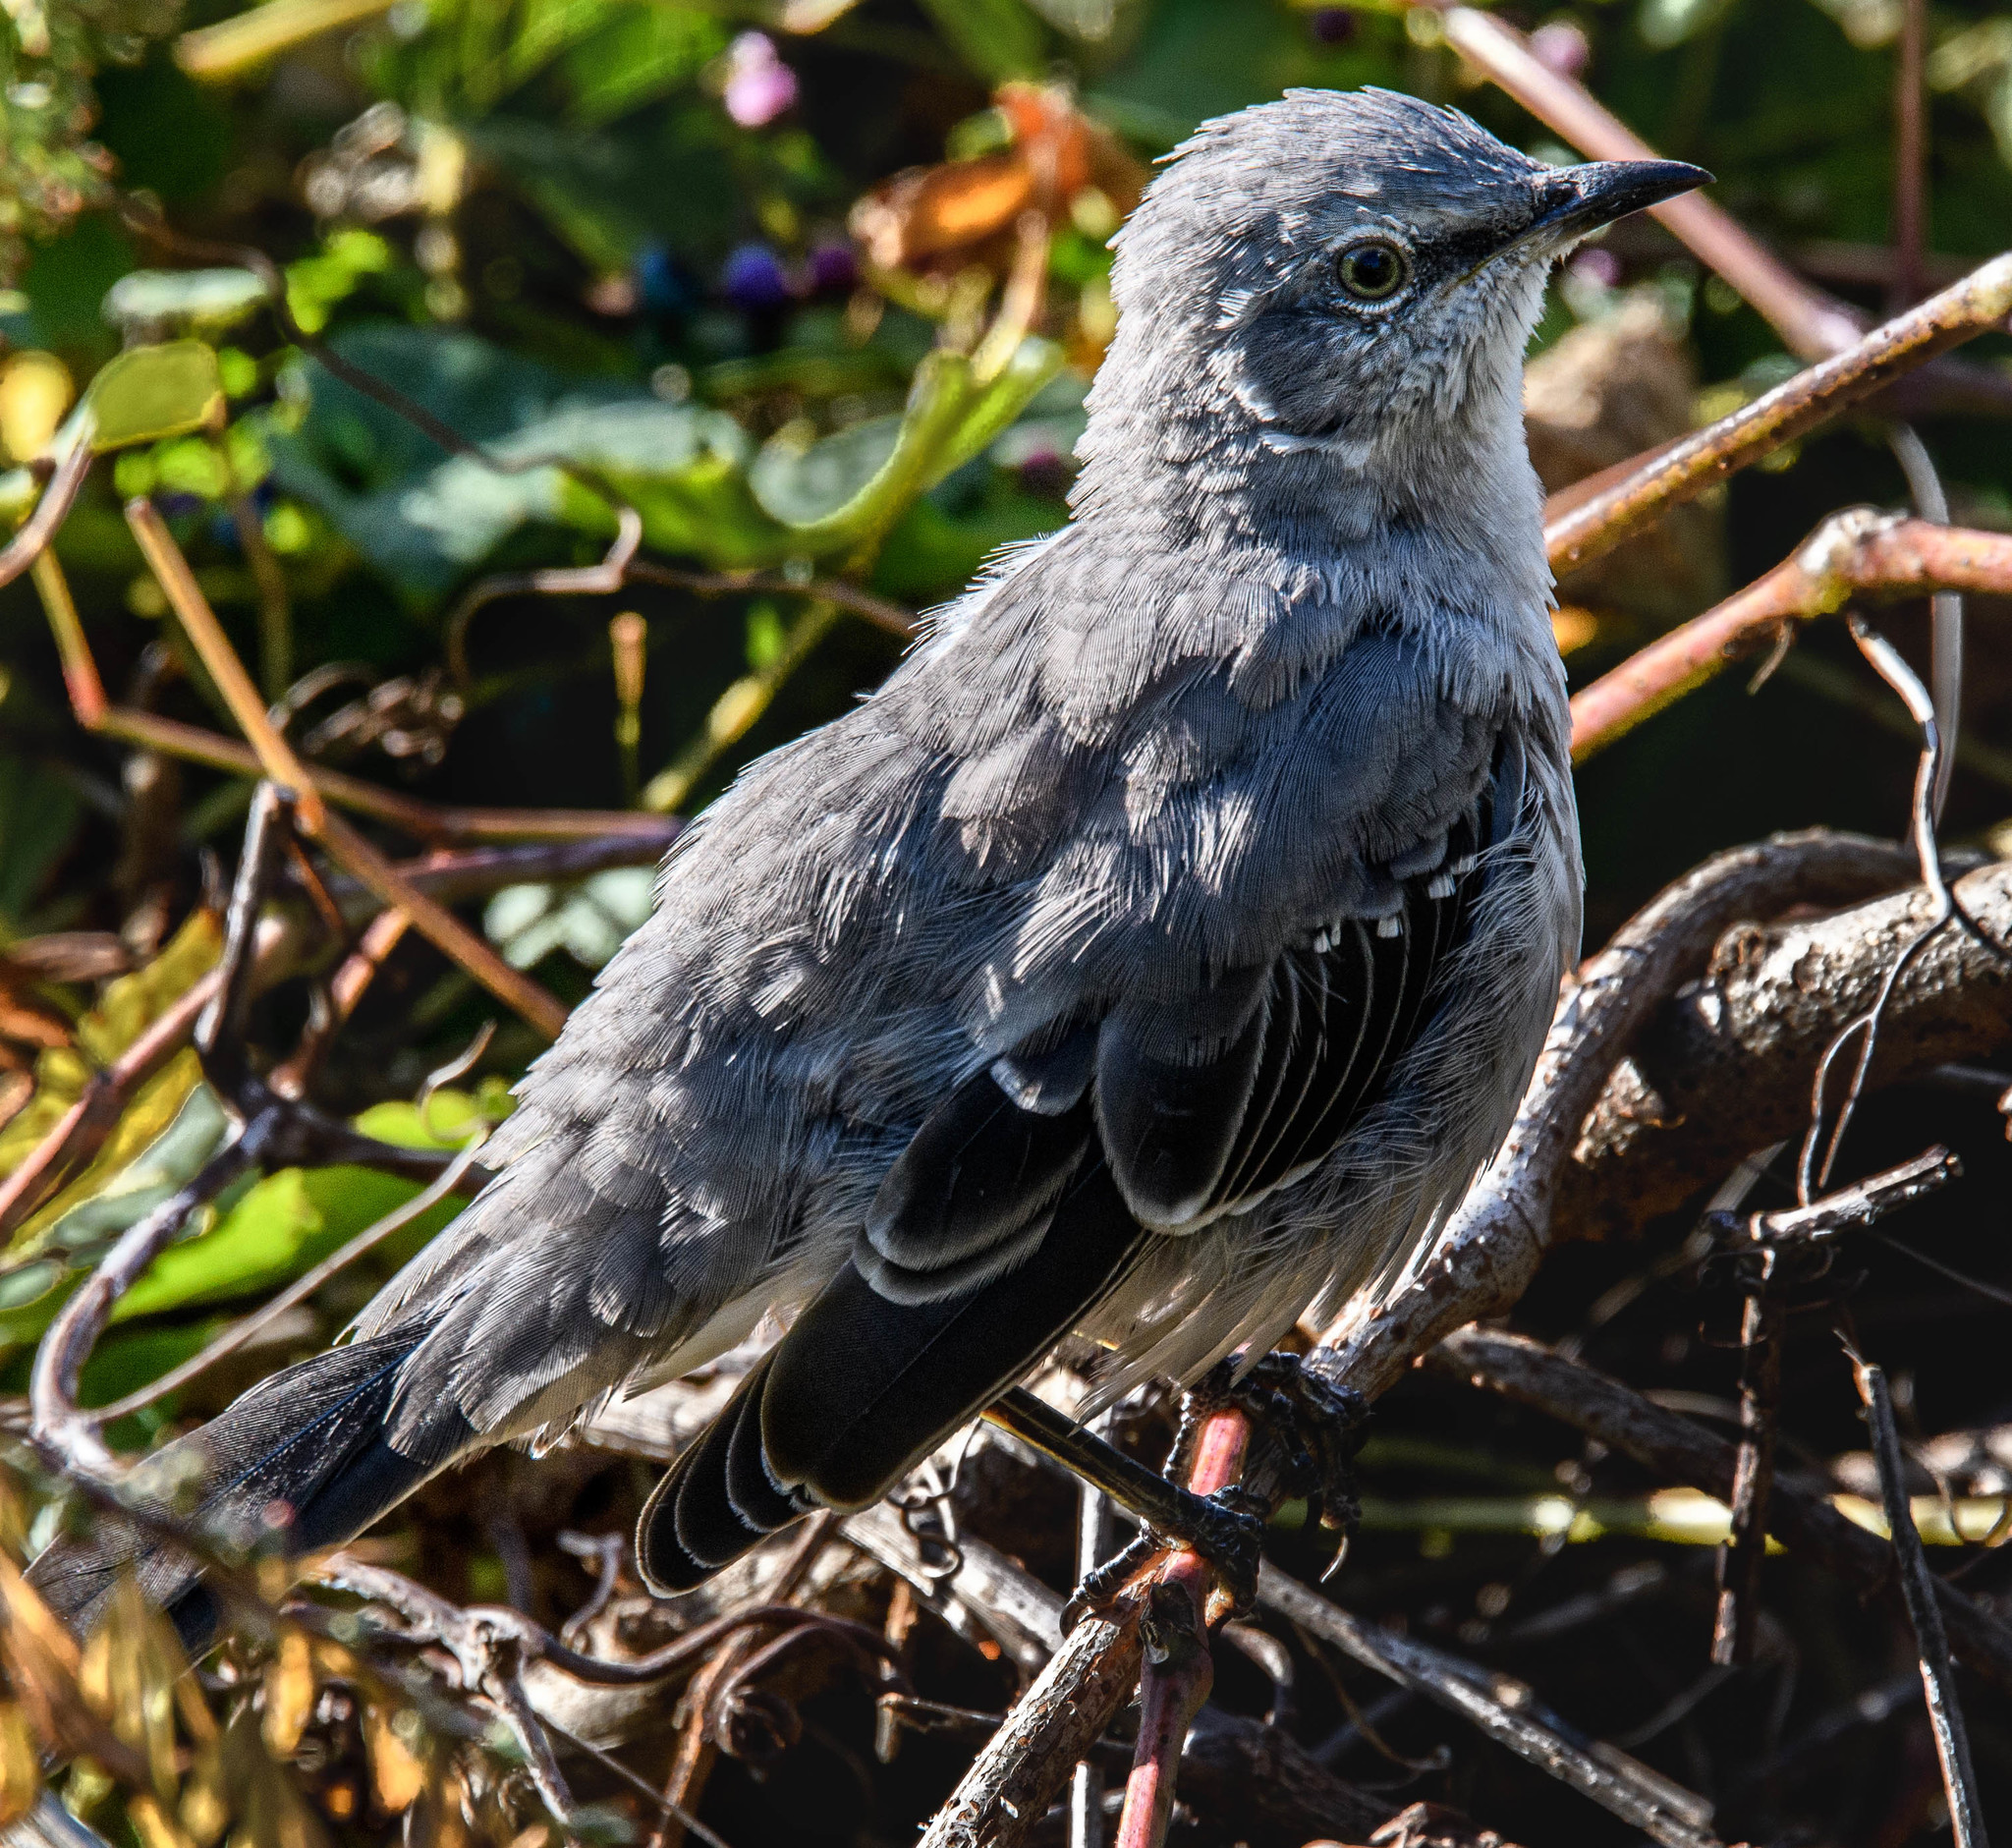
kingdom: Animalia
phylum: Chordata
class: Aves
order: Passeriformes
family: Mimidae
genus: Mimus
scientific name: Mimus polyglottos
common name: Northern mockingbird
